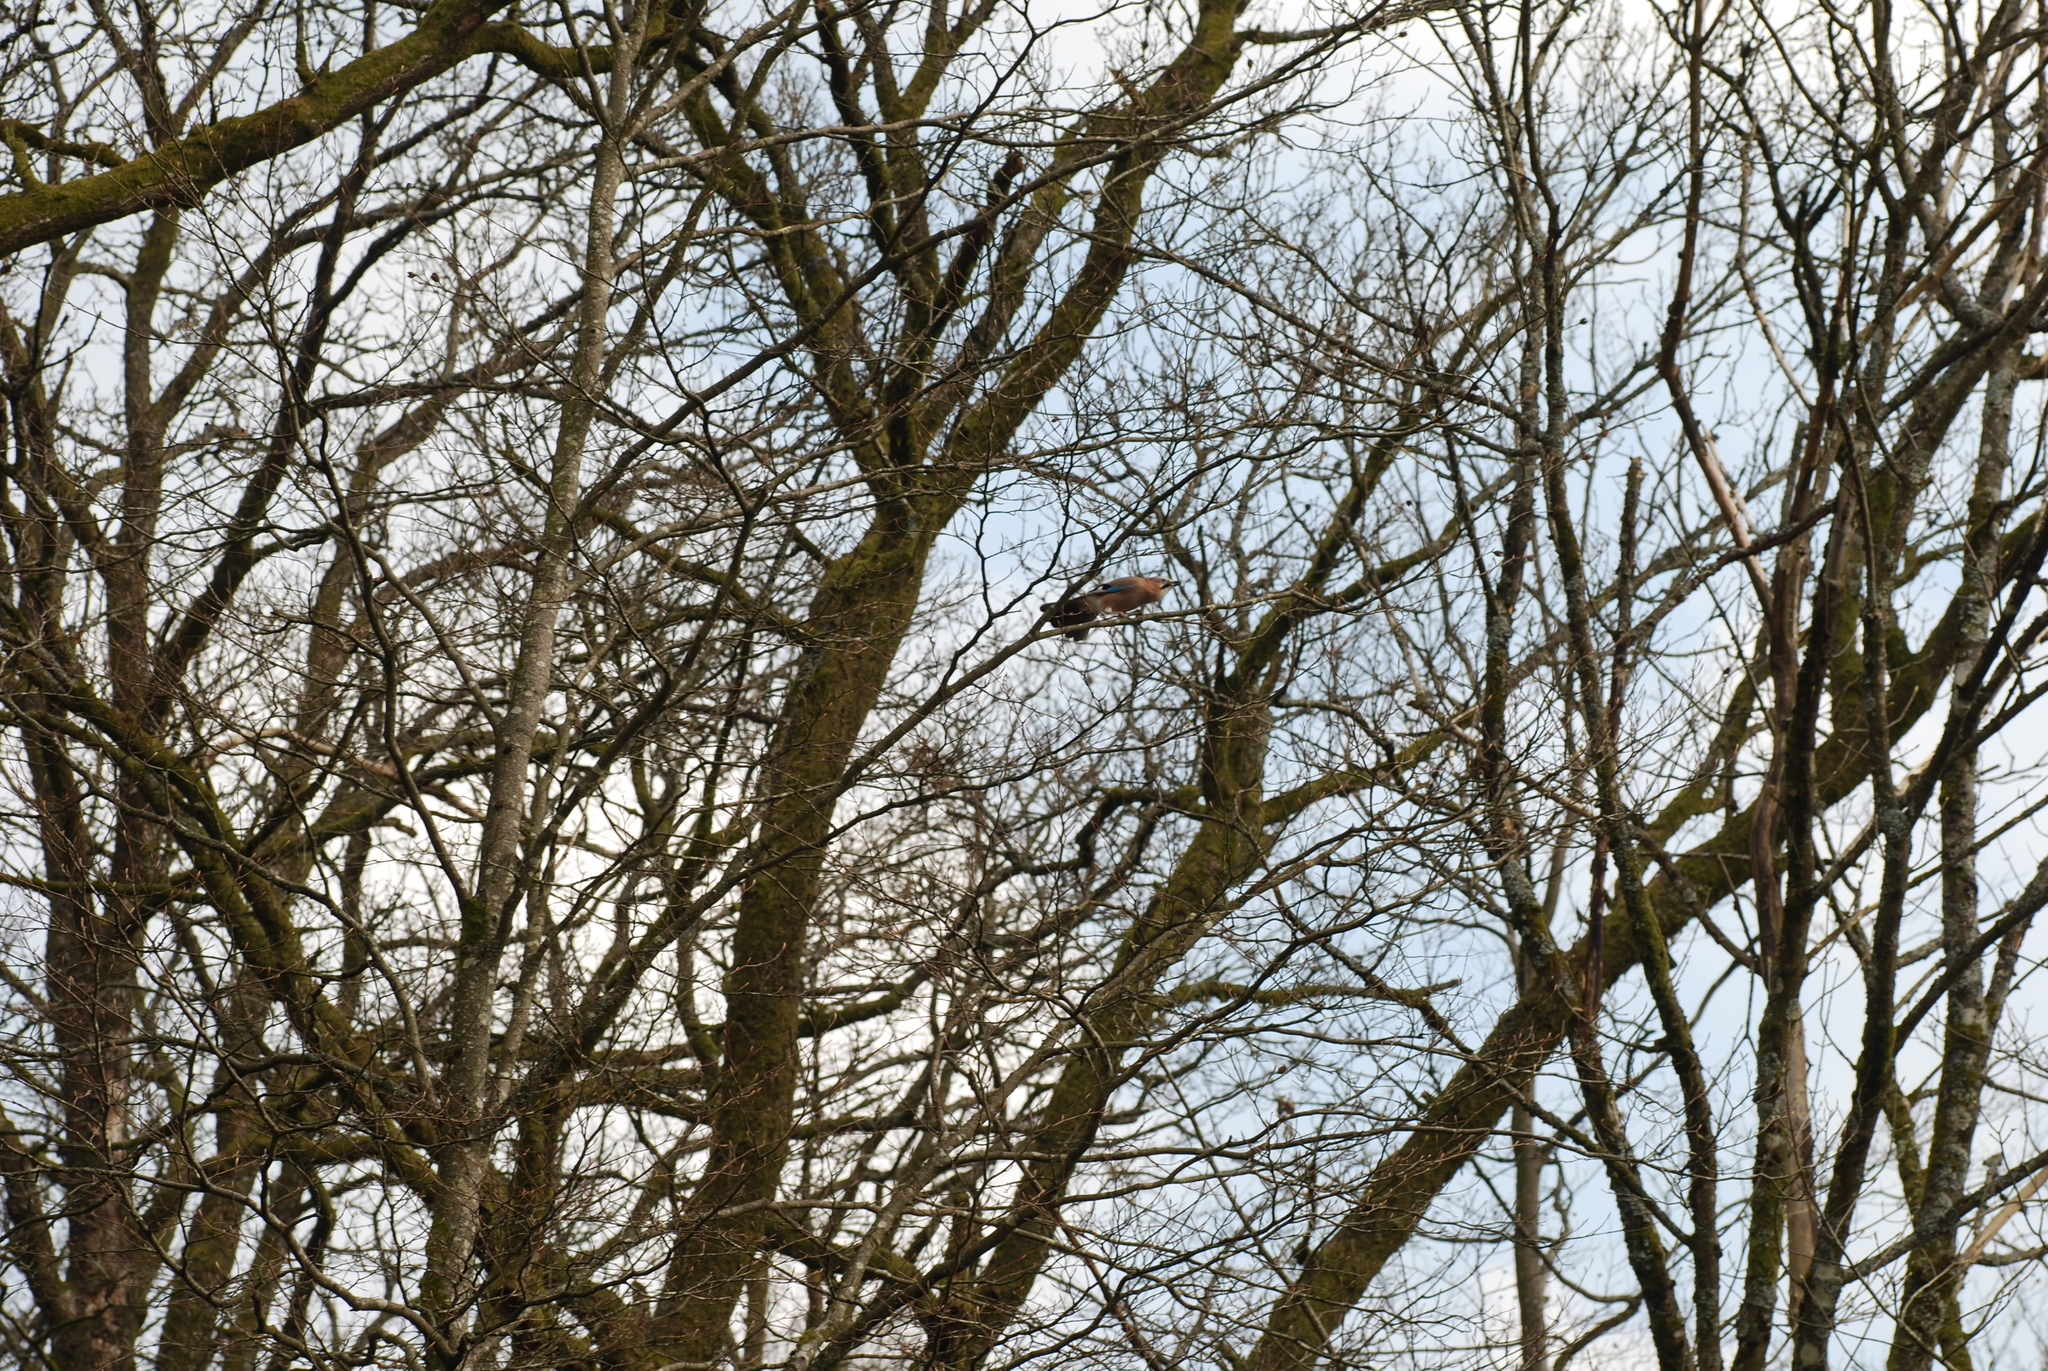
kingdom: Animalia
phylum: Chordata
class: Aves
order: Passeriformes
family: Corvidae
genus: Garrulus
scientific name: Garrulus glandarius
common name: Eurasian jay
